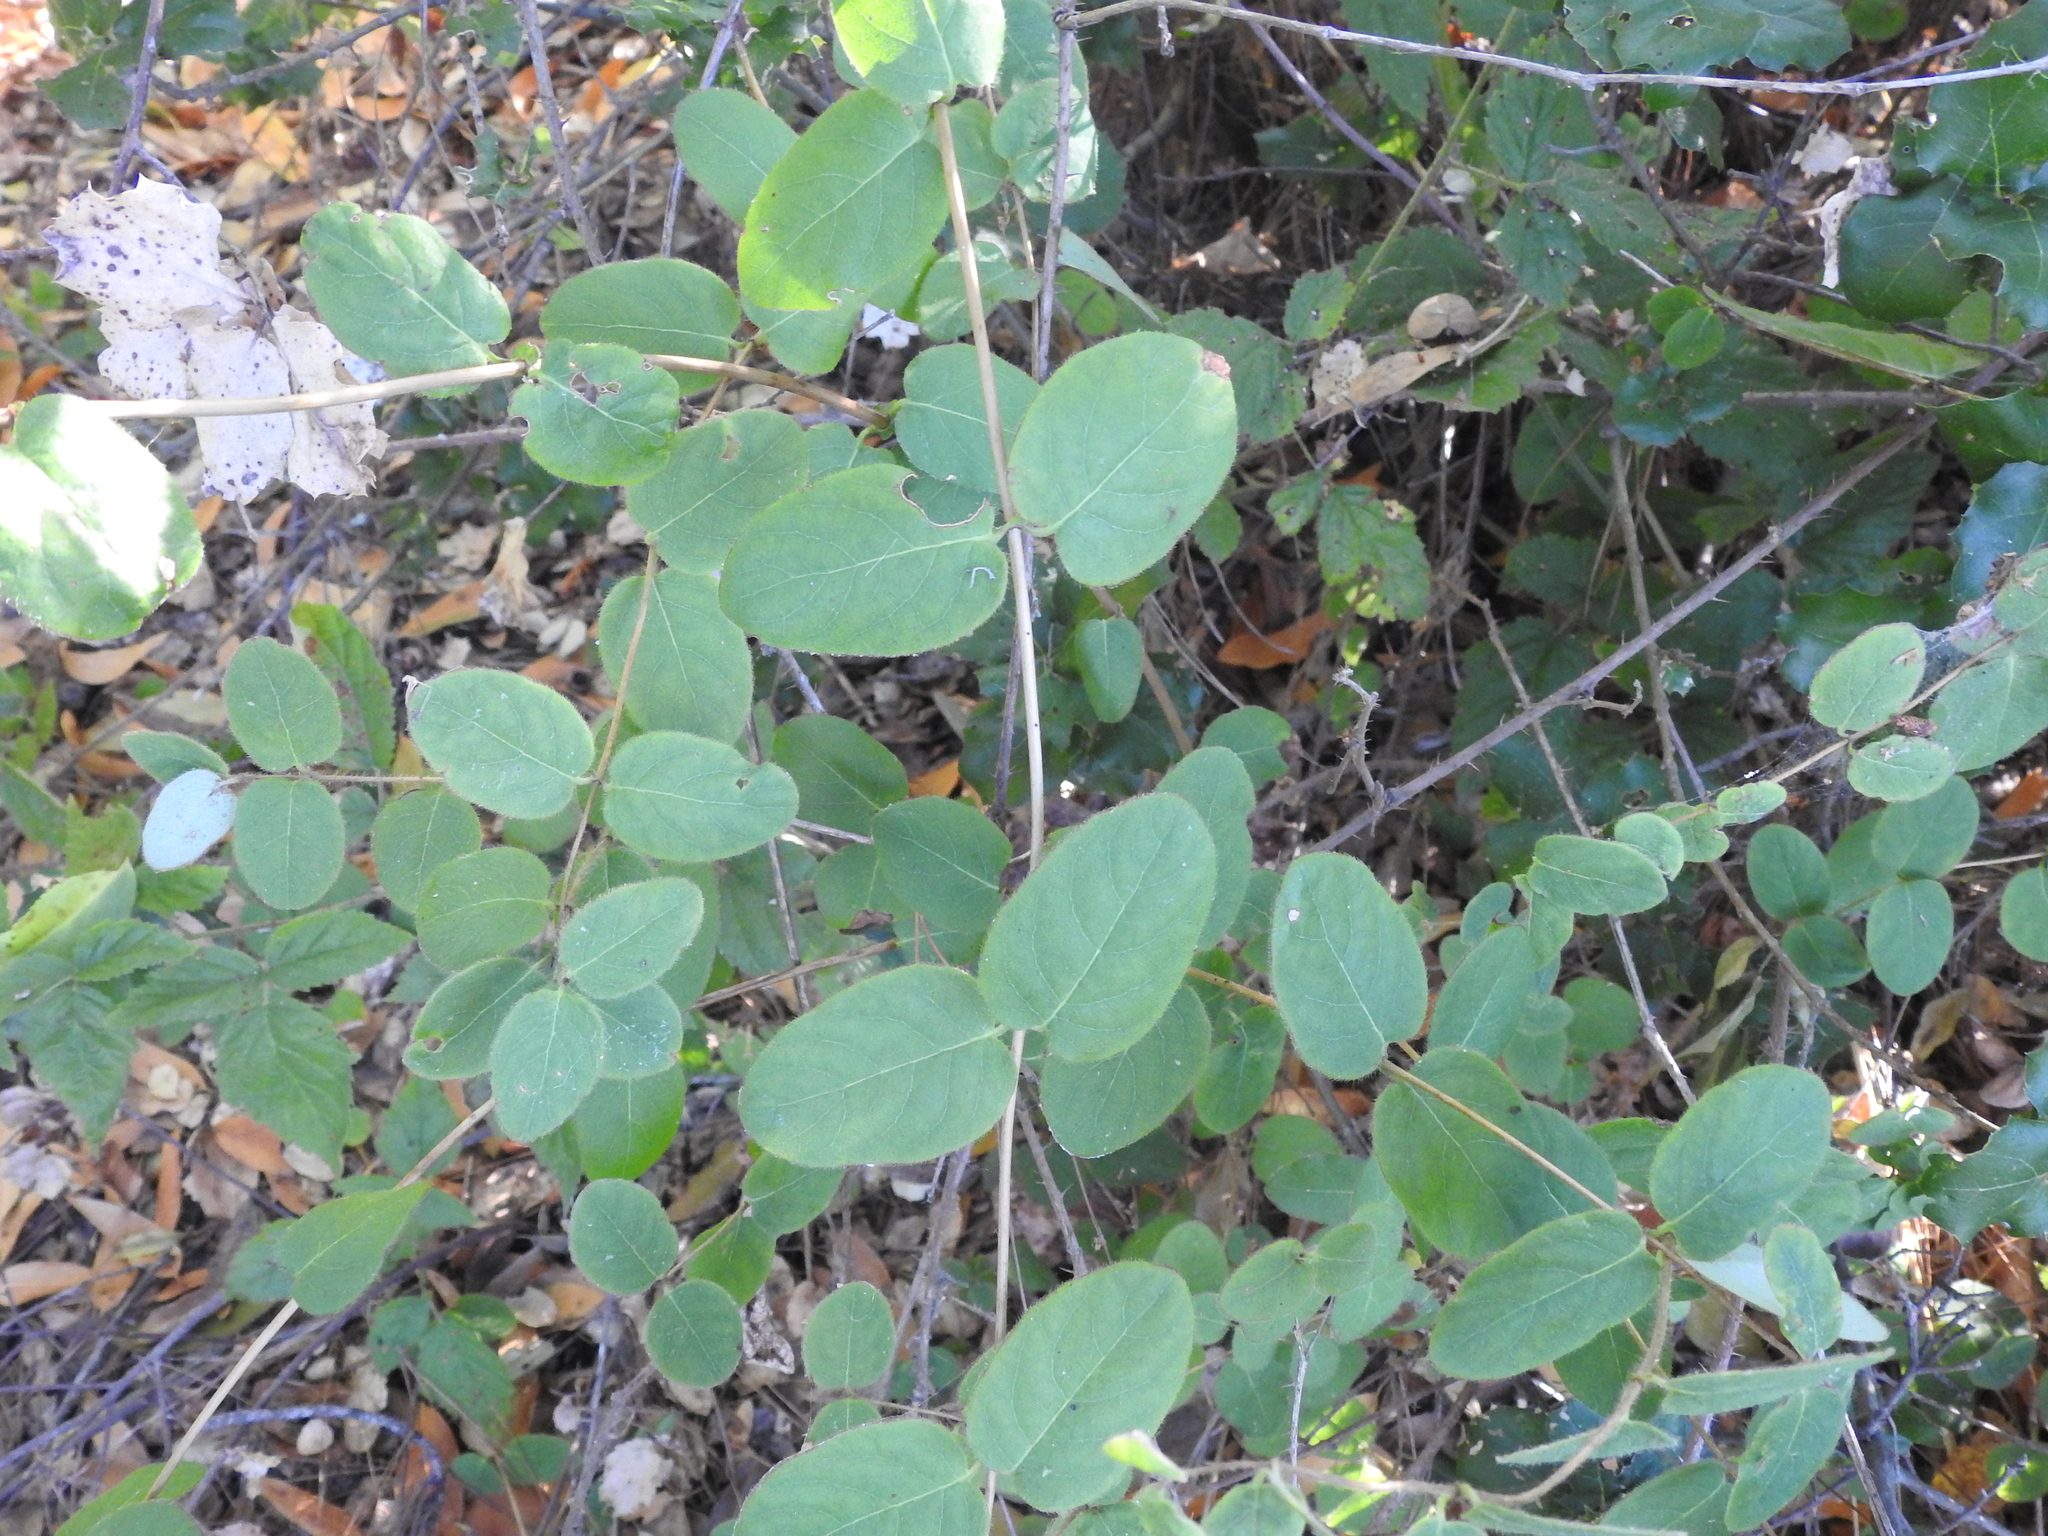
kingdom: Plantae
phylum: Tracheophyta
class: Magnoliopsida
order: Dipsacales
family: Caprifoliaceae
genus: Lonicera
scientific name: Lonicera hispidula
